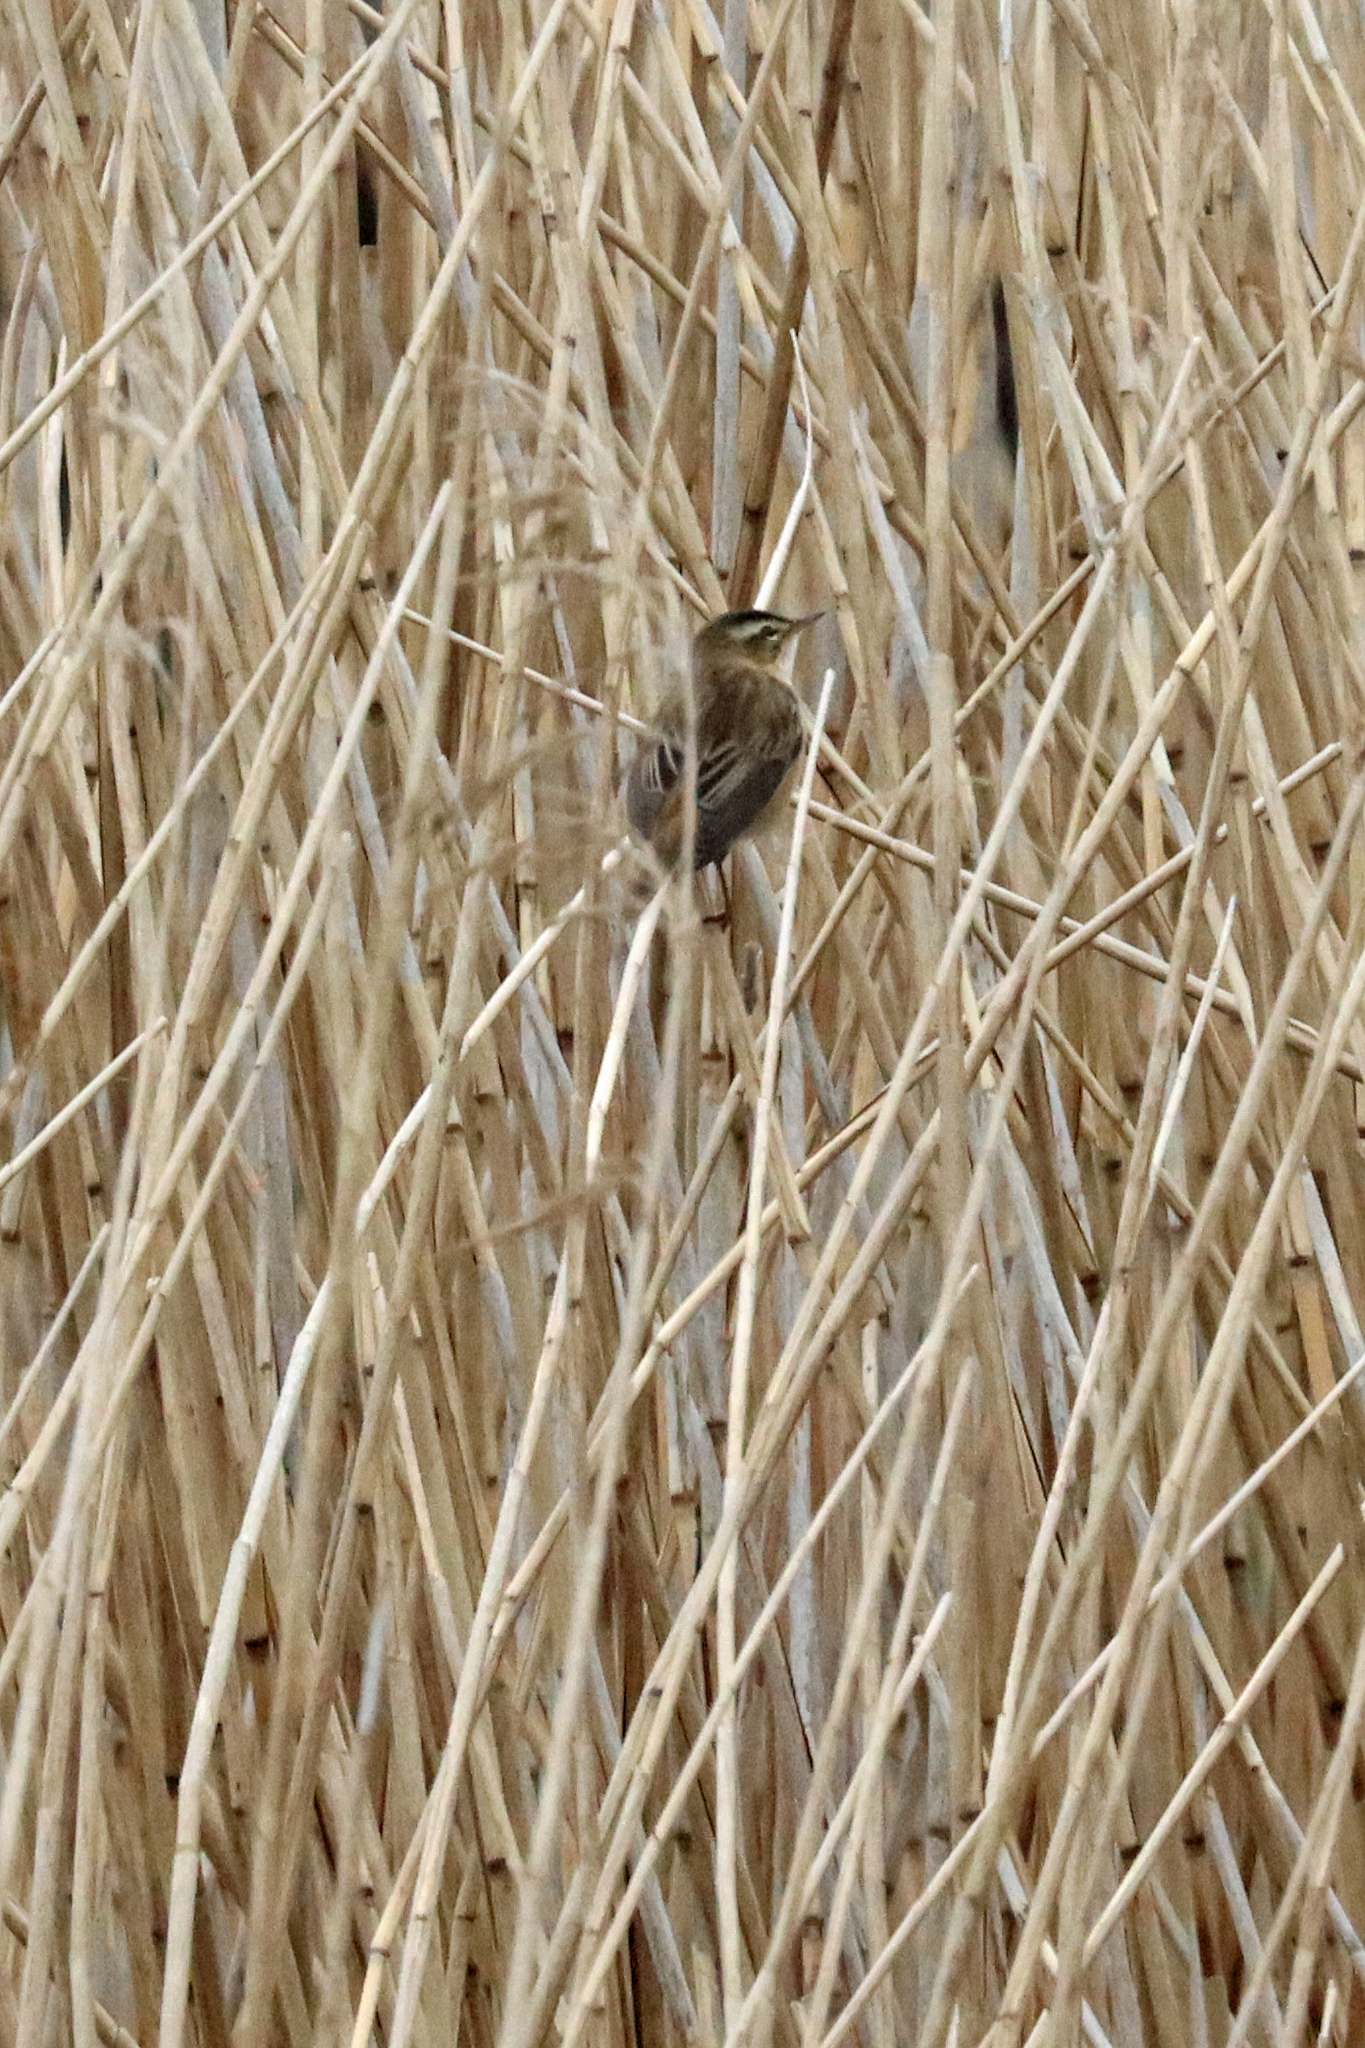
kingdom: Animalia
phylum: Chordata
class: Aves
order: Passeriformes
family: Acrocephalidae
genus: Acrocephalus
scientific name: Acrocephalus schoenobaenus
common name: Sedge warbler
